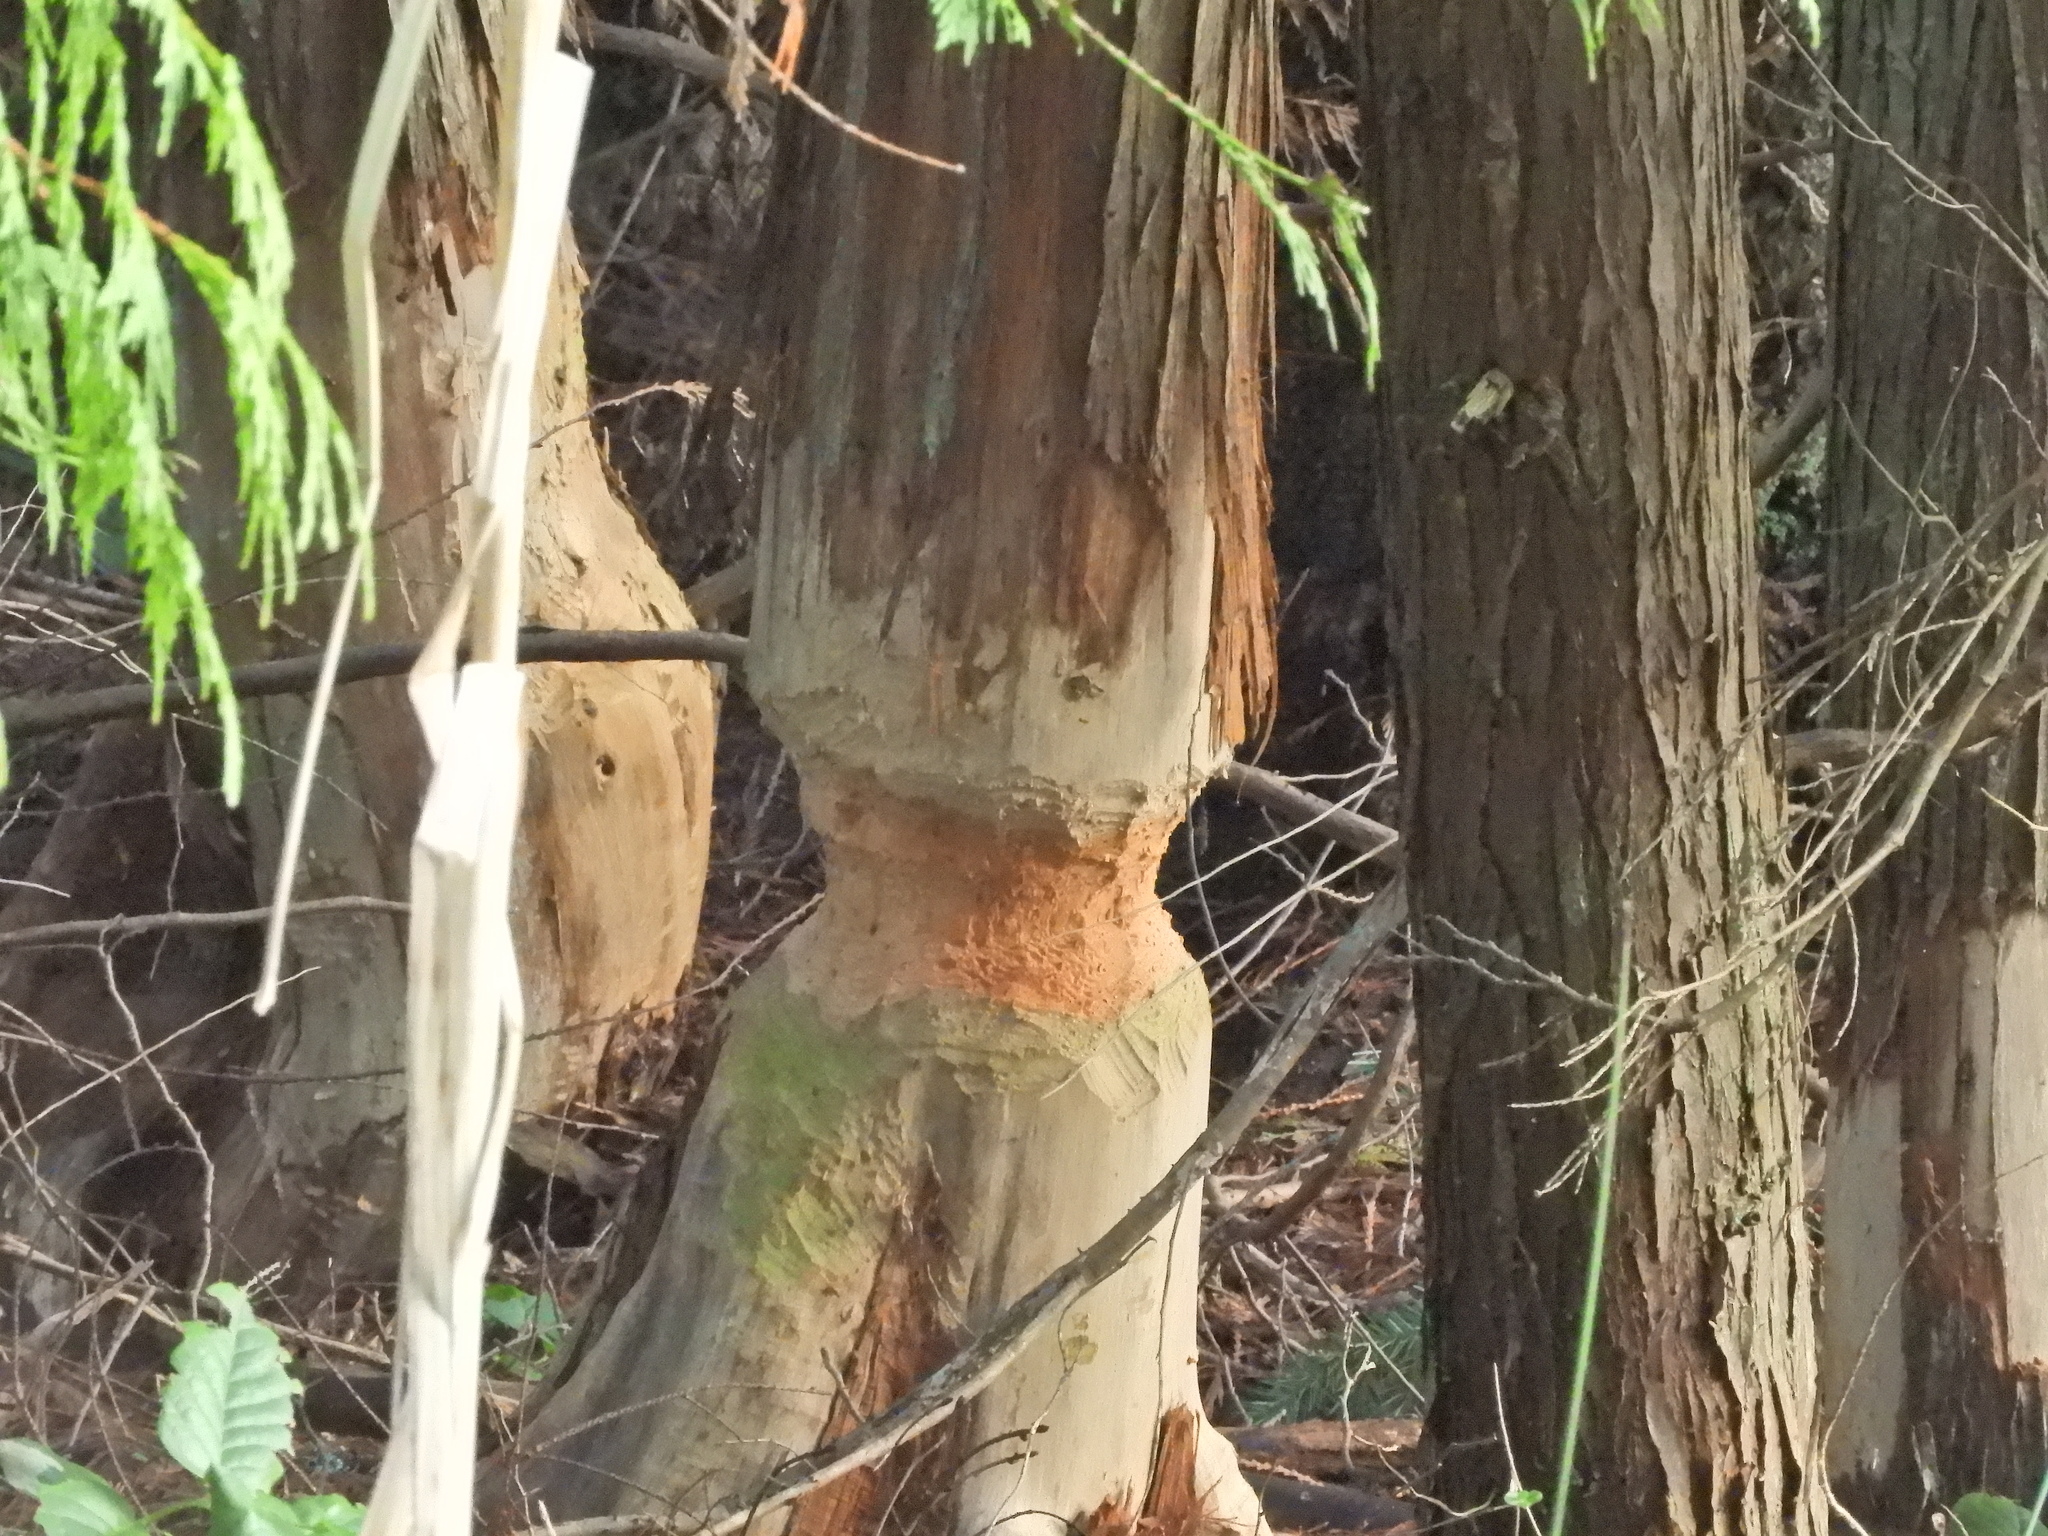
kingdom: Animalia
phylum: Chordata
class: Mammalia
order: Rodentia
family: Castoridae
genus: Castor
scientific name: Castor canadensis
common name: American beaver
